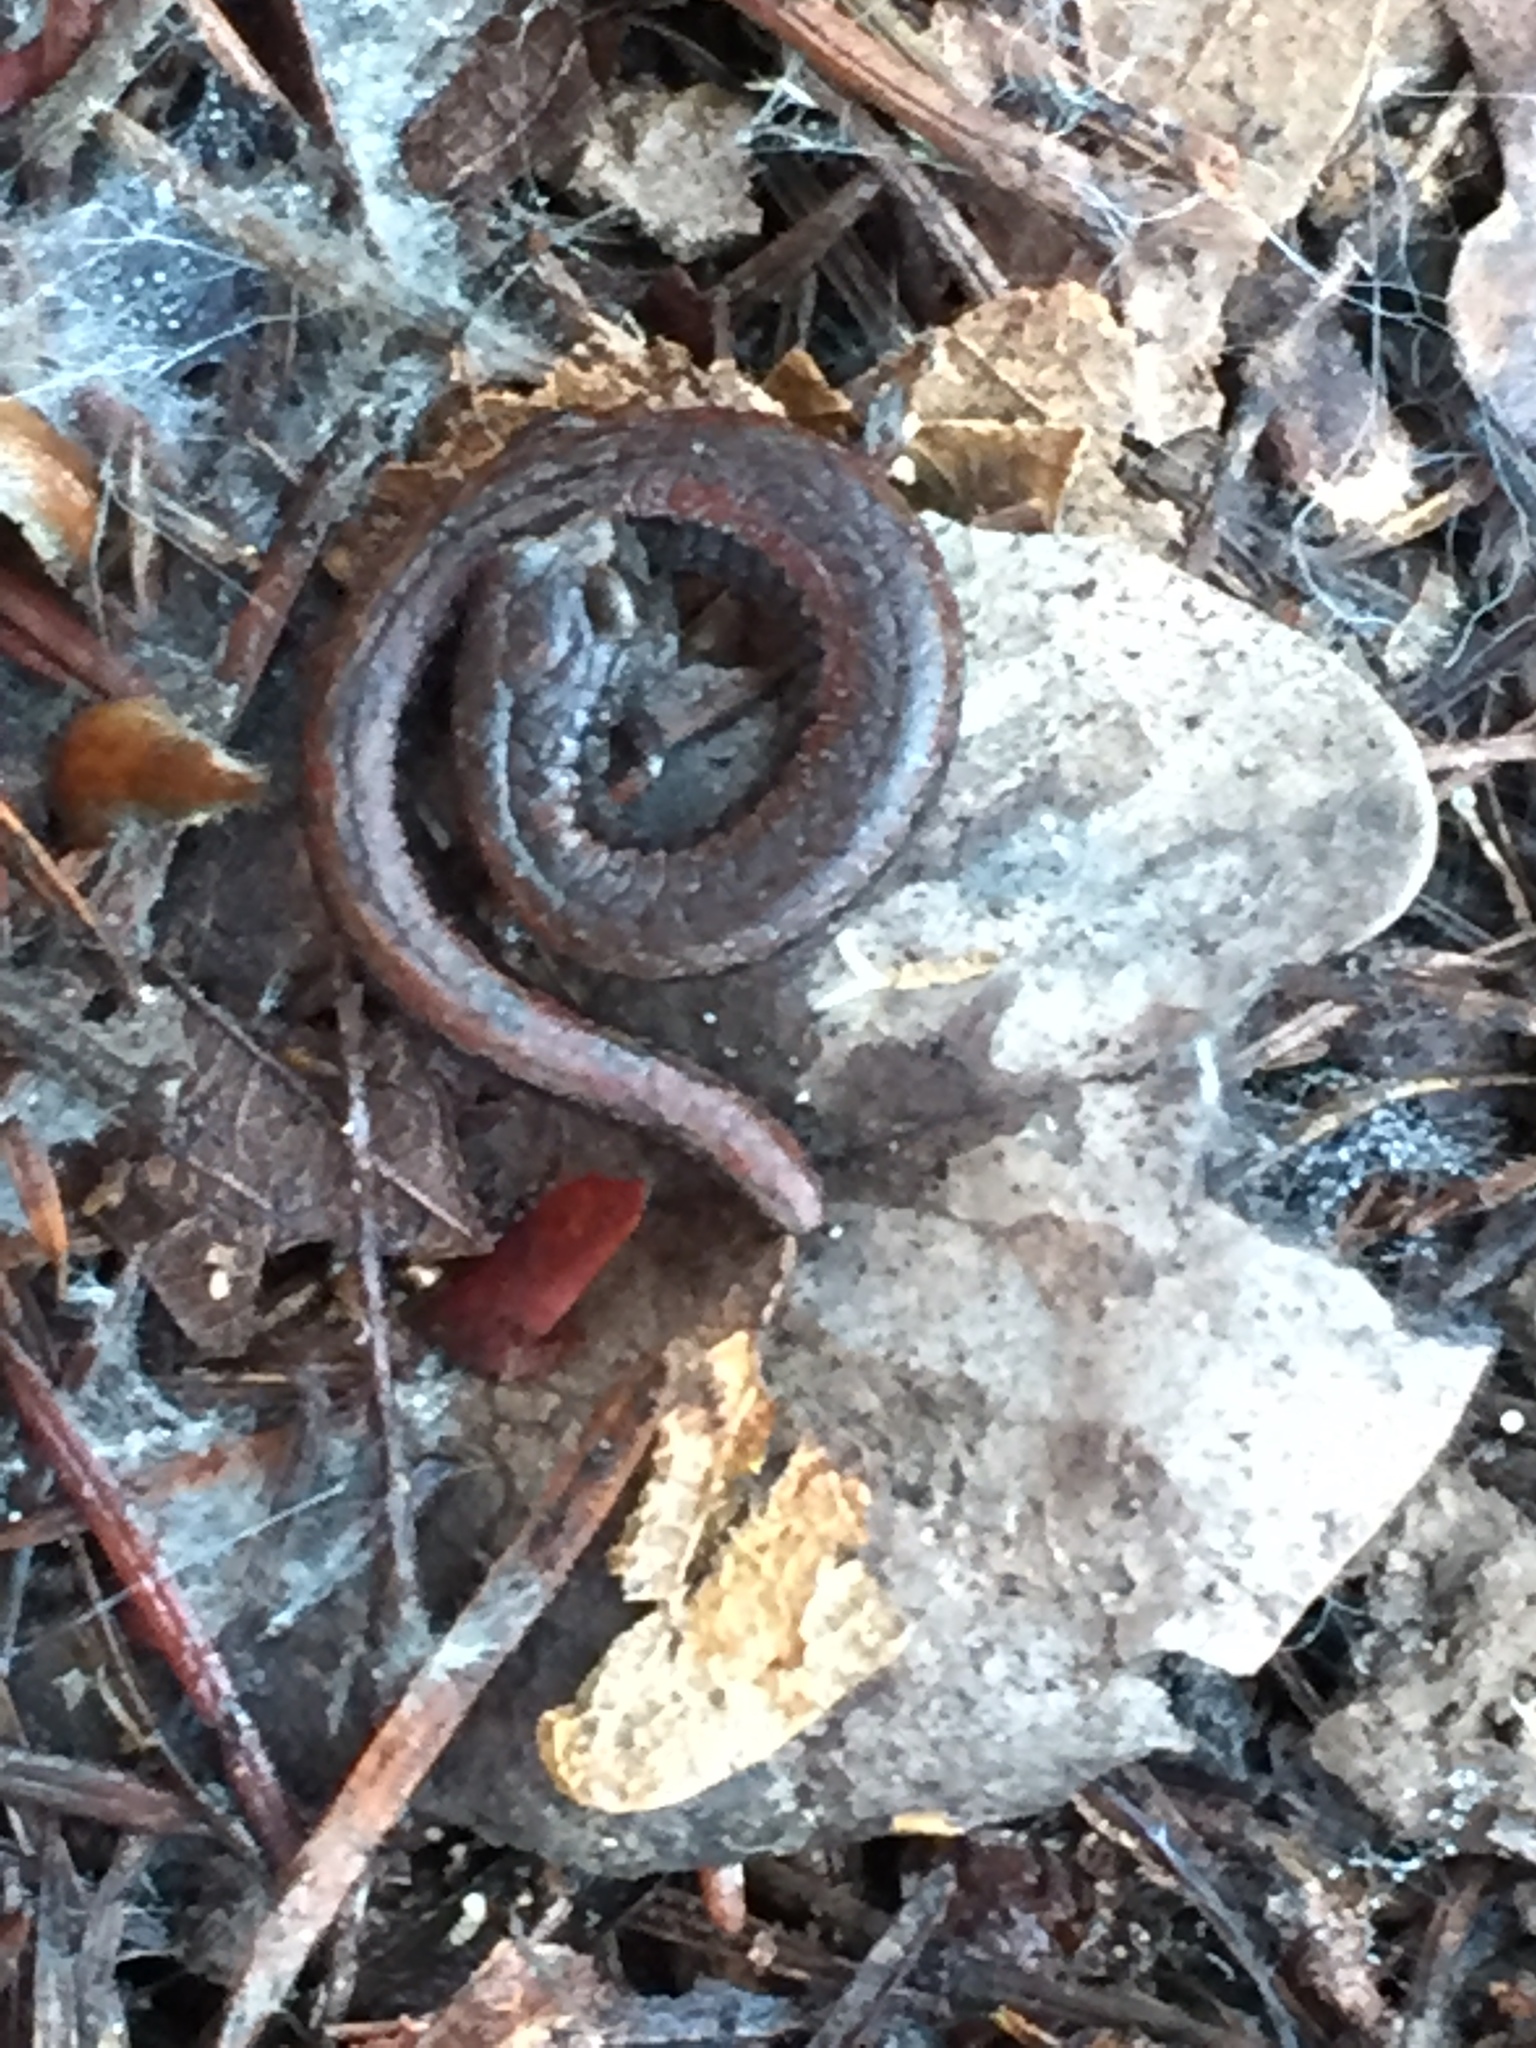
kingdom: Animalia
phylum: Chordata
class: Amphibia
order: Caudata
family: Plethodontidae
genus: Batrachoseps
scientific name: Batrachoseps attenuatus
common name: California slender salamander
